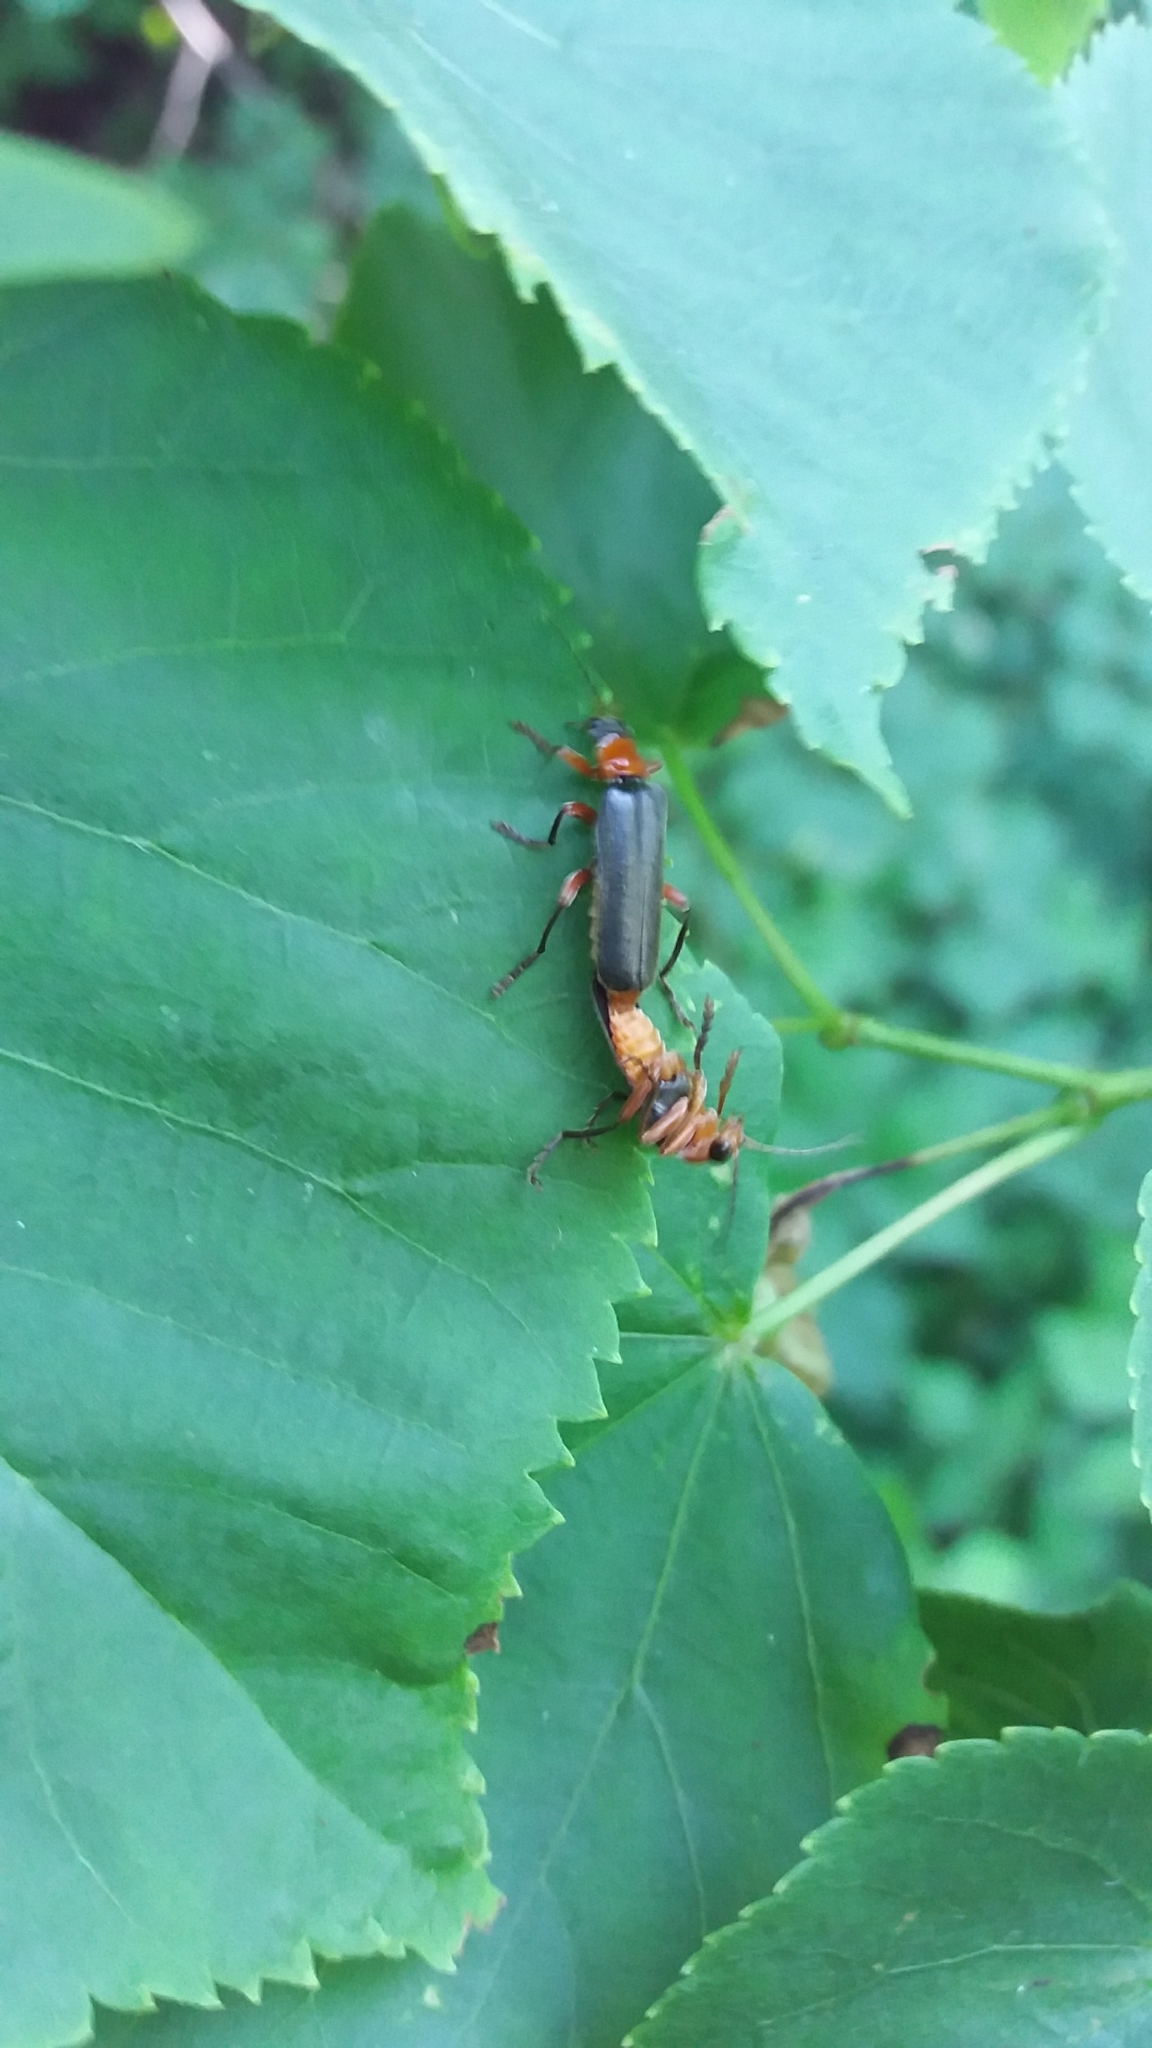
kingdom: Animalia
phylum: Arthropoda
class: Insecta
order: Coleoptera
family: Cantharidae
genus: Cantharis
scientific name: Cantharis pellucida
